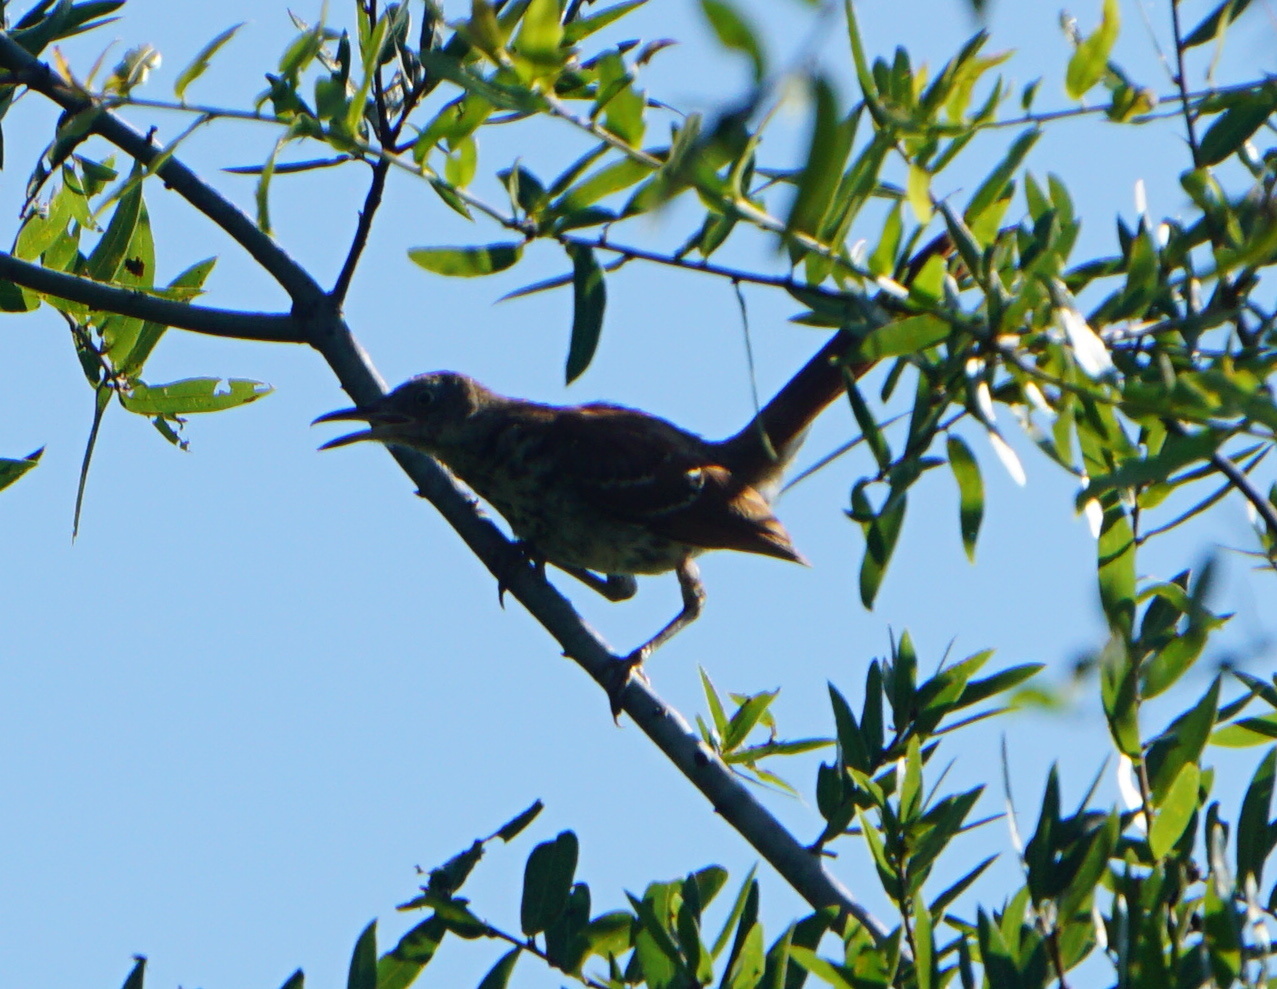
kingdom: Animalia
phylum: Chordata
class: Aves
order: Passeriformes
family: Mimidae
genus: Toxostoma
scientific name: Toxostoma rufum
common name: Brown thrasher
